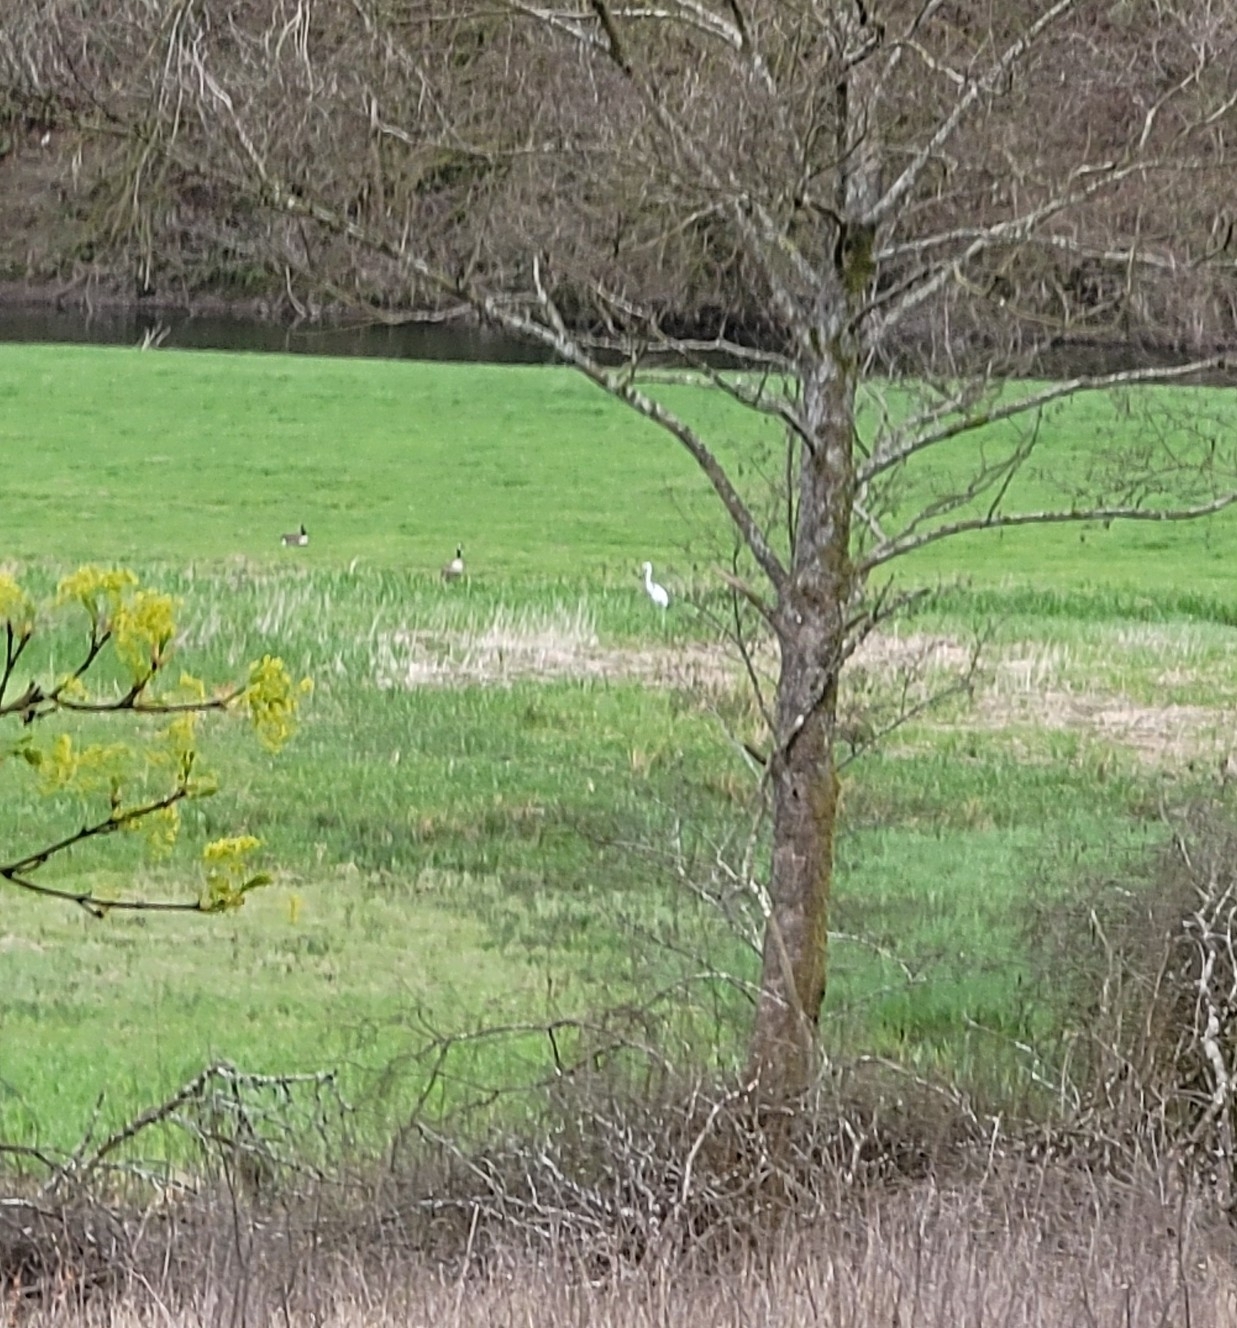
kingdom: Animalia
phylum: Chordata
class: Aves
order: Pelecaniformes
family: Ardeidae
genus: Ardea
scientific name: Ardea alba
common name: Great egret
